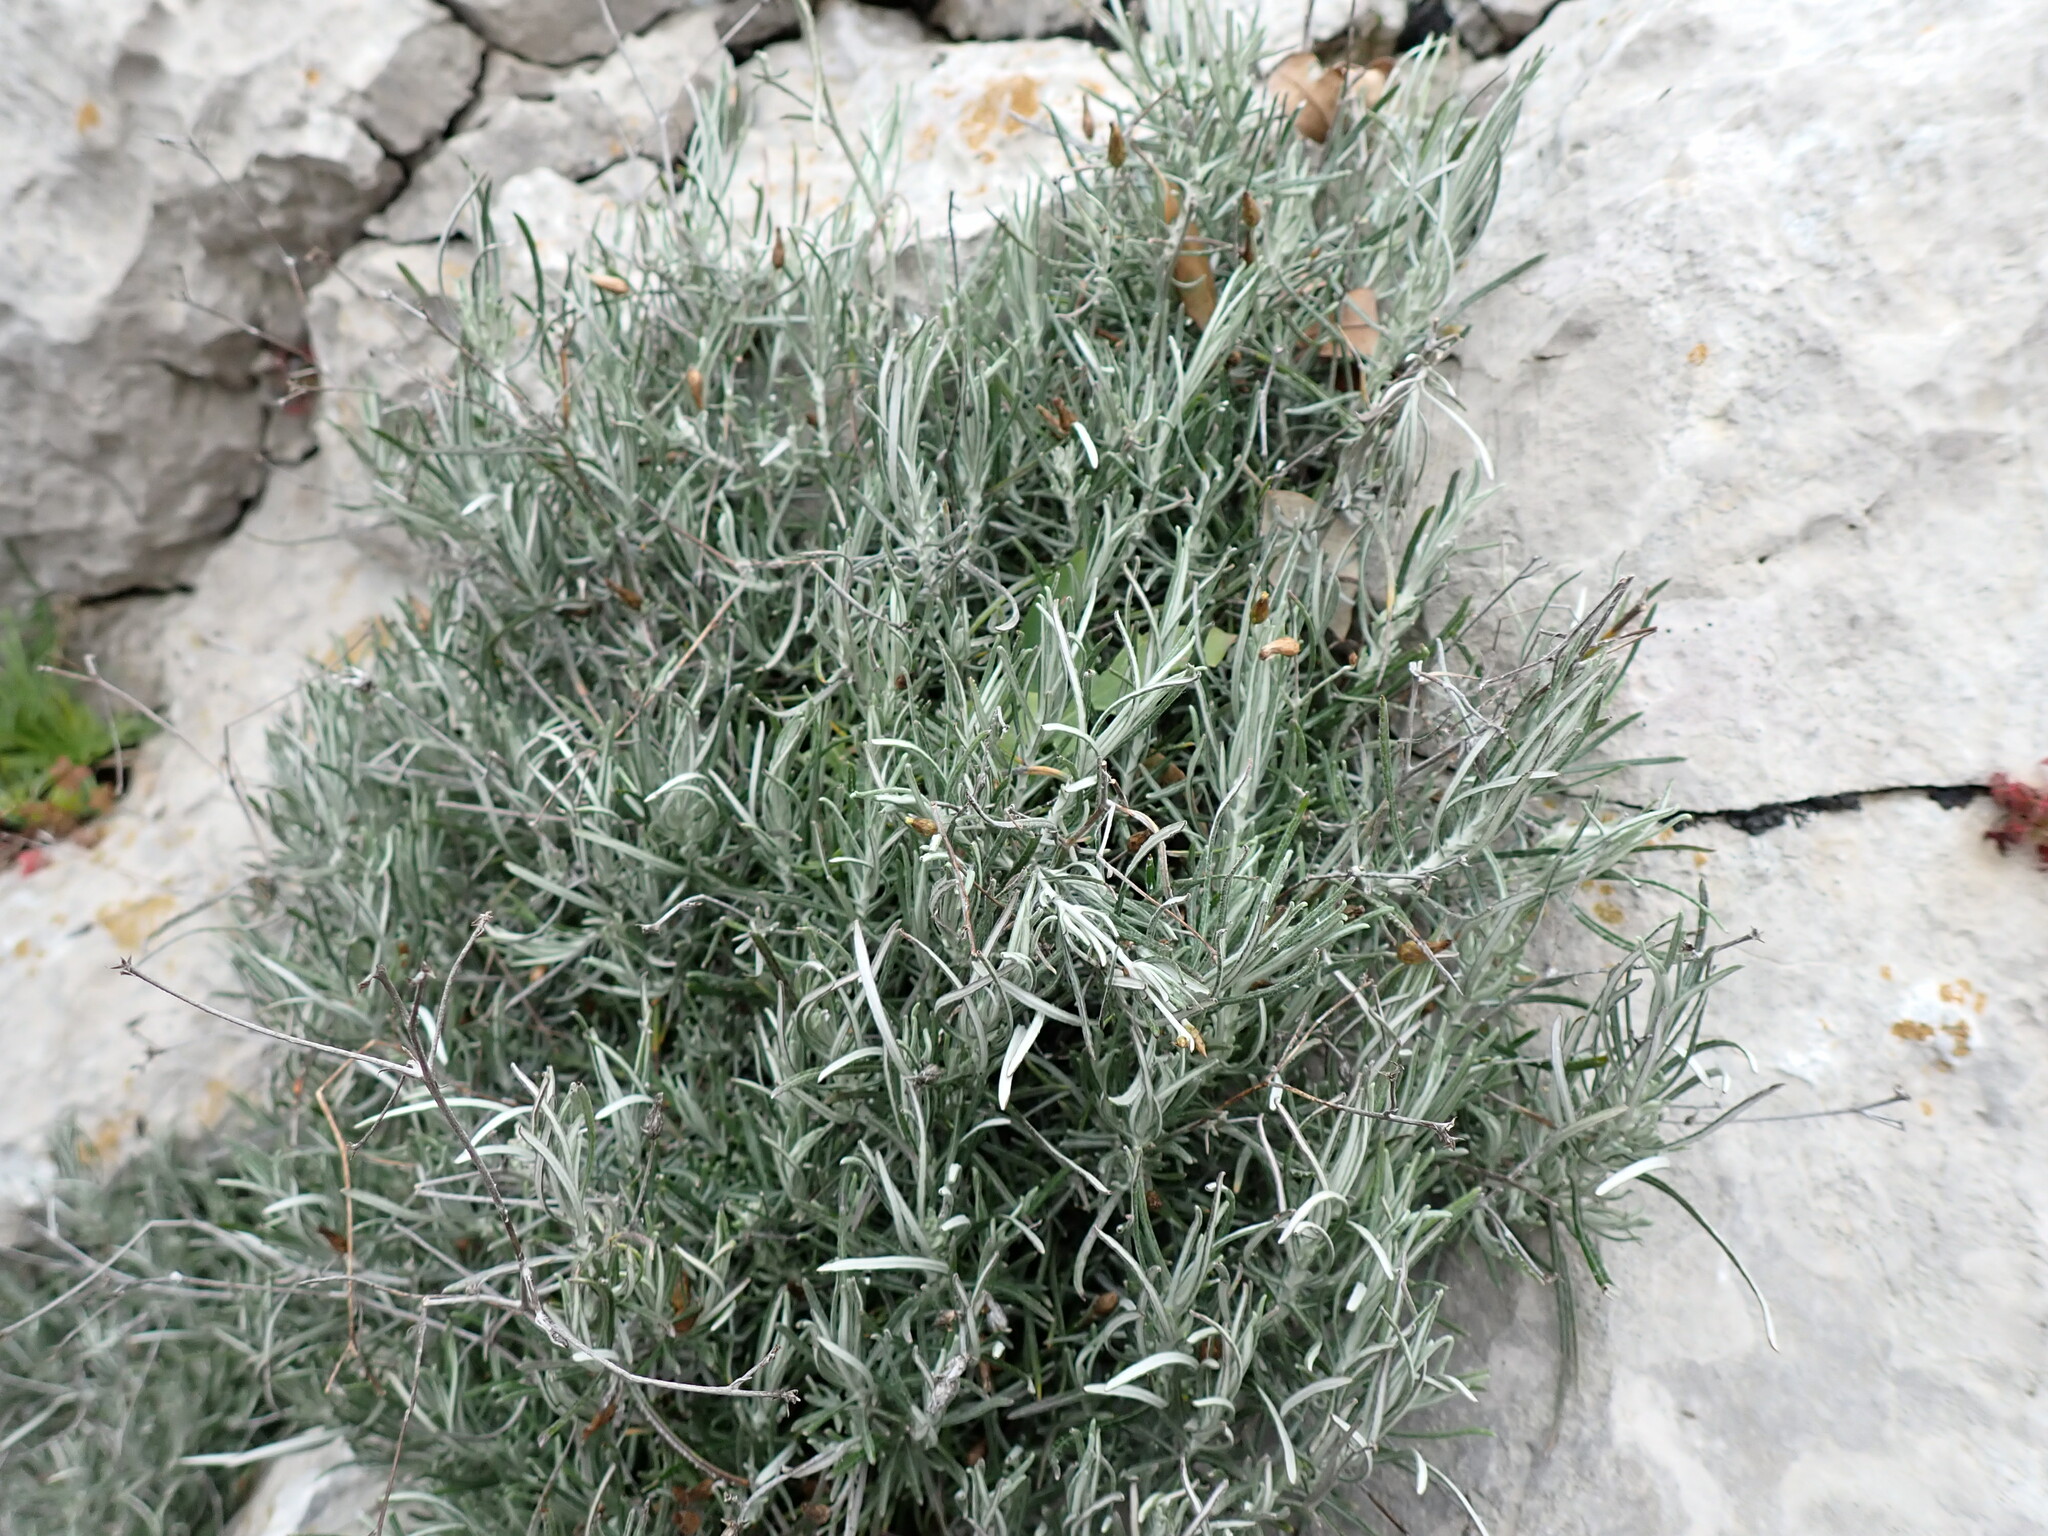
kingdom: Plantae
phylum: Tracheophyta
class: Magnoliopsida
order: Asterales
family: Asteraceae
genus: Phagnalon
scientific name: Phagnalon sordidum
